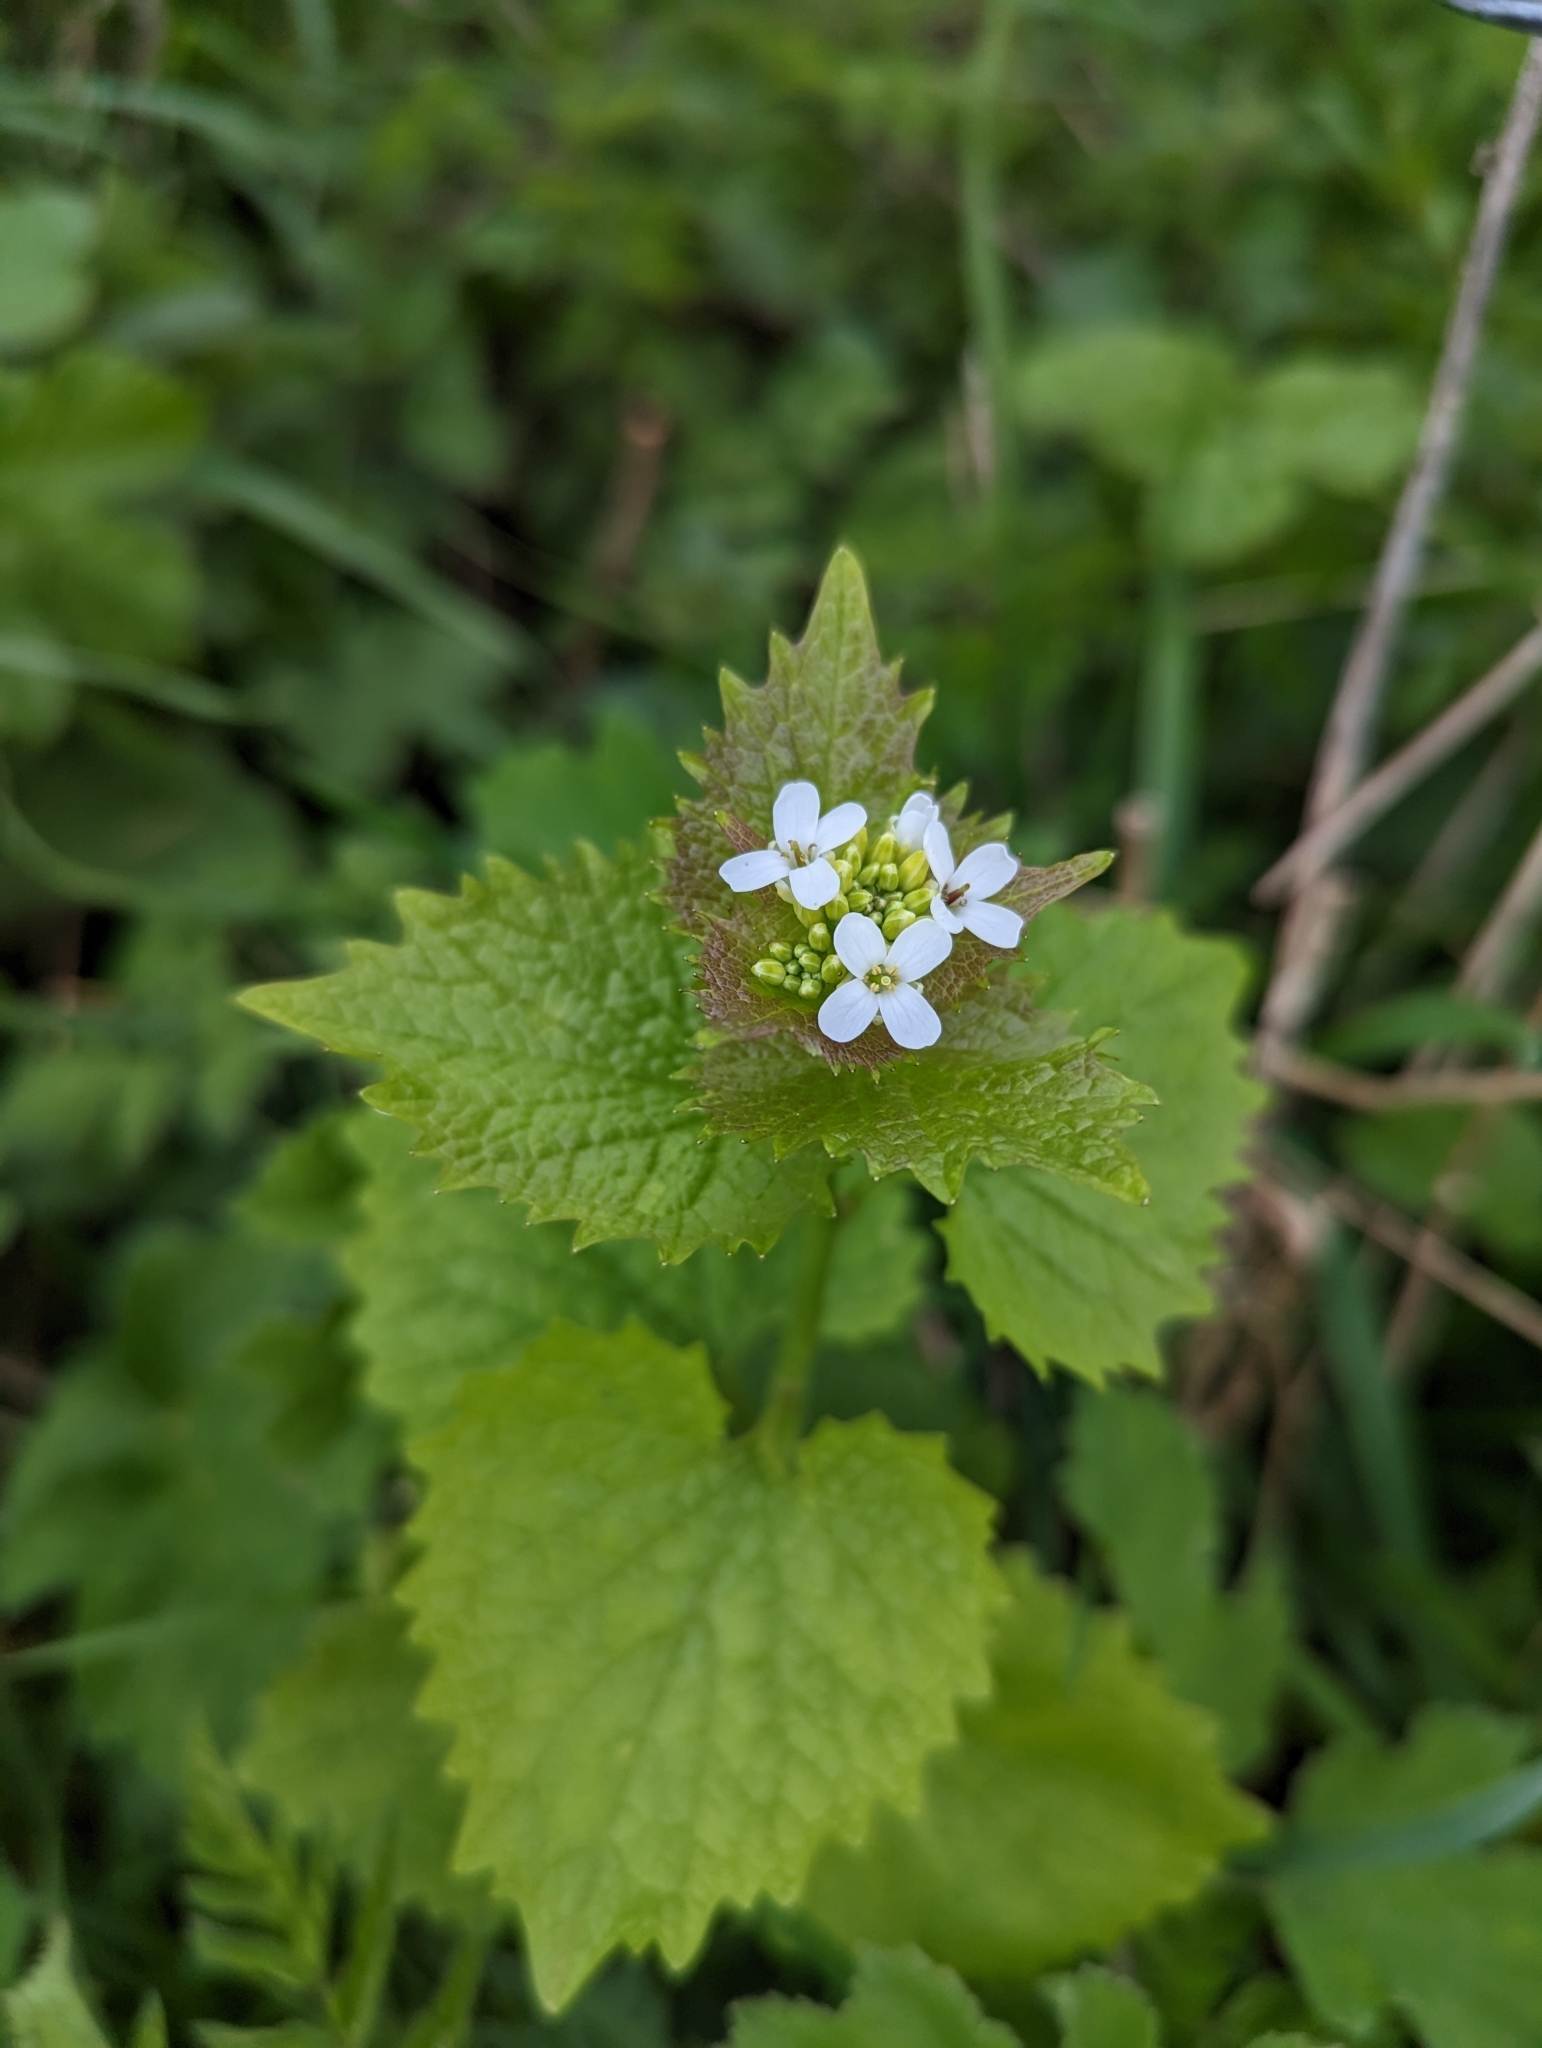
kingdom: Plantae
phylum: Tracheophyta
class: Magnoliopsida
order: Brassicales
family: Brassicaceae
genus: Alliaria
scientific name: Alliaria petiolata
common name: Garlic mustard
